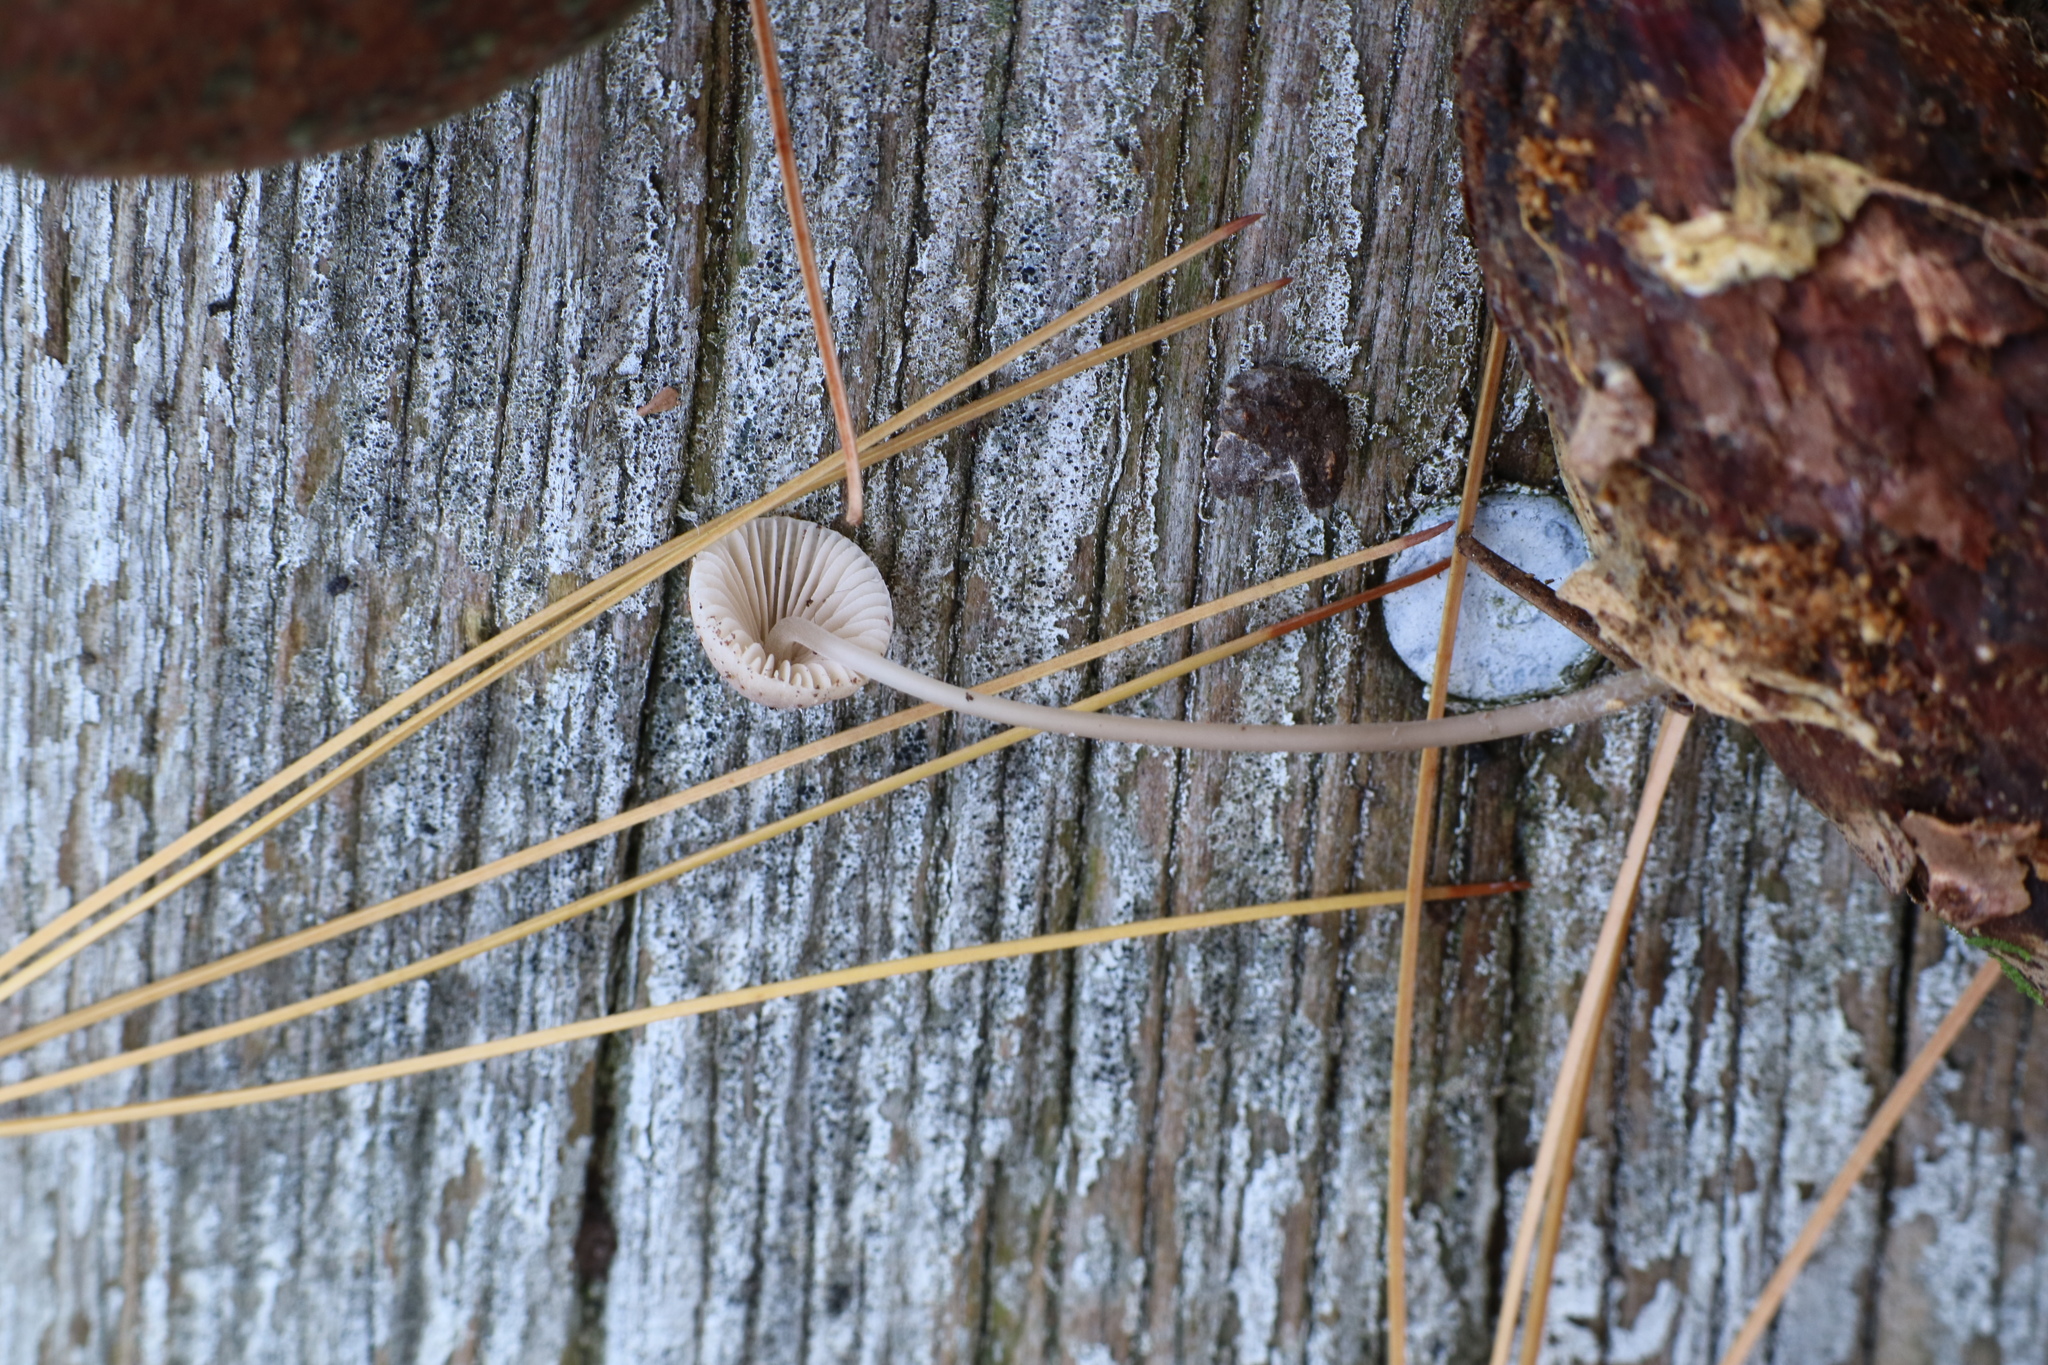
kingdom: Fungi
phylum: Basidiomycota
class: Agaricomycetes
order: Agaricales
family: Mycenaceae
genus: Mycena
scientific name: Mycena filopes
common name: Iodine bonnet
